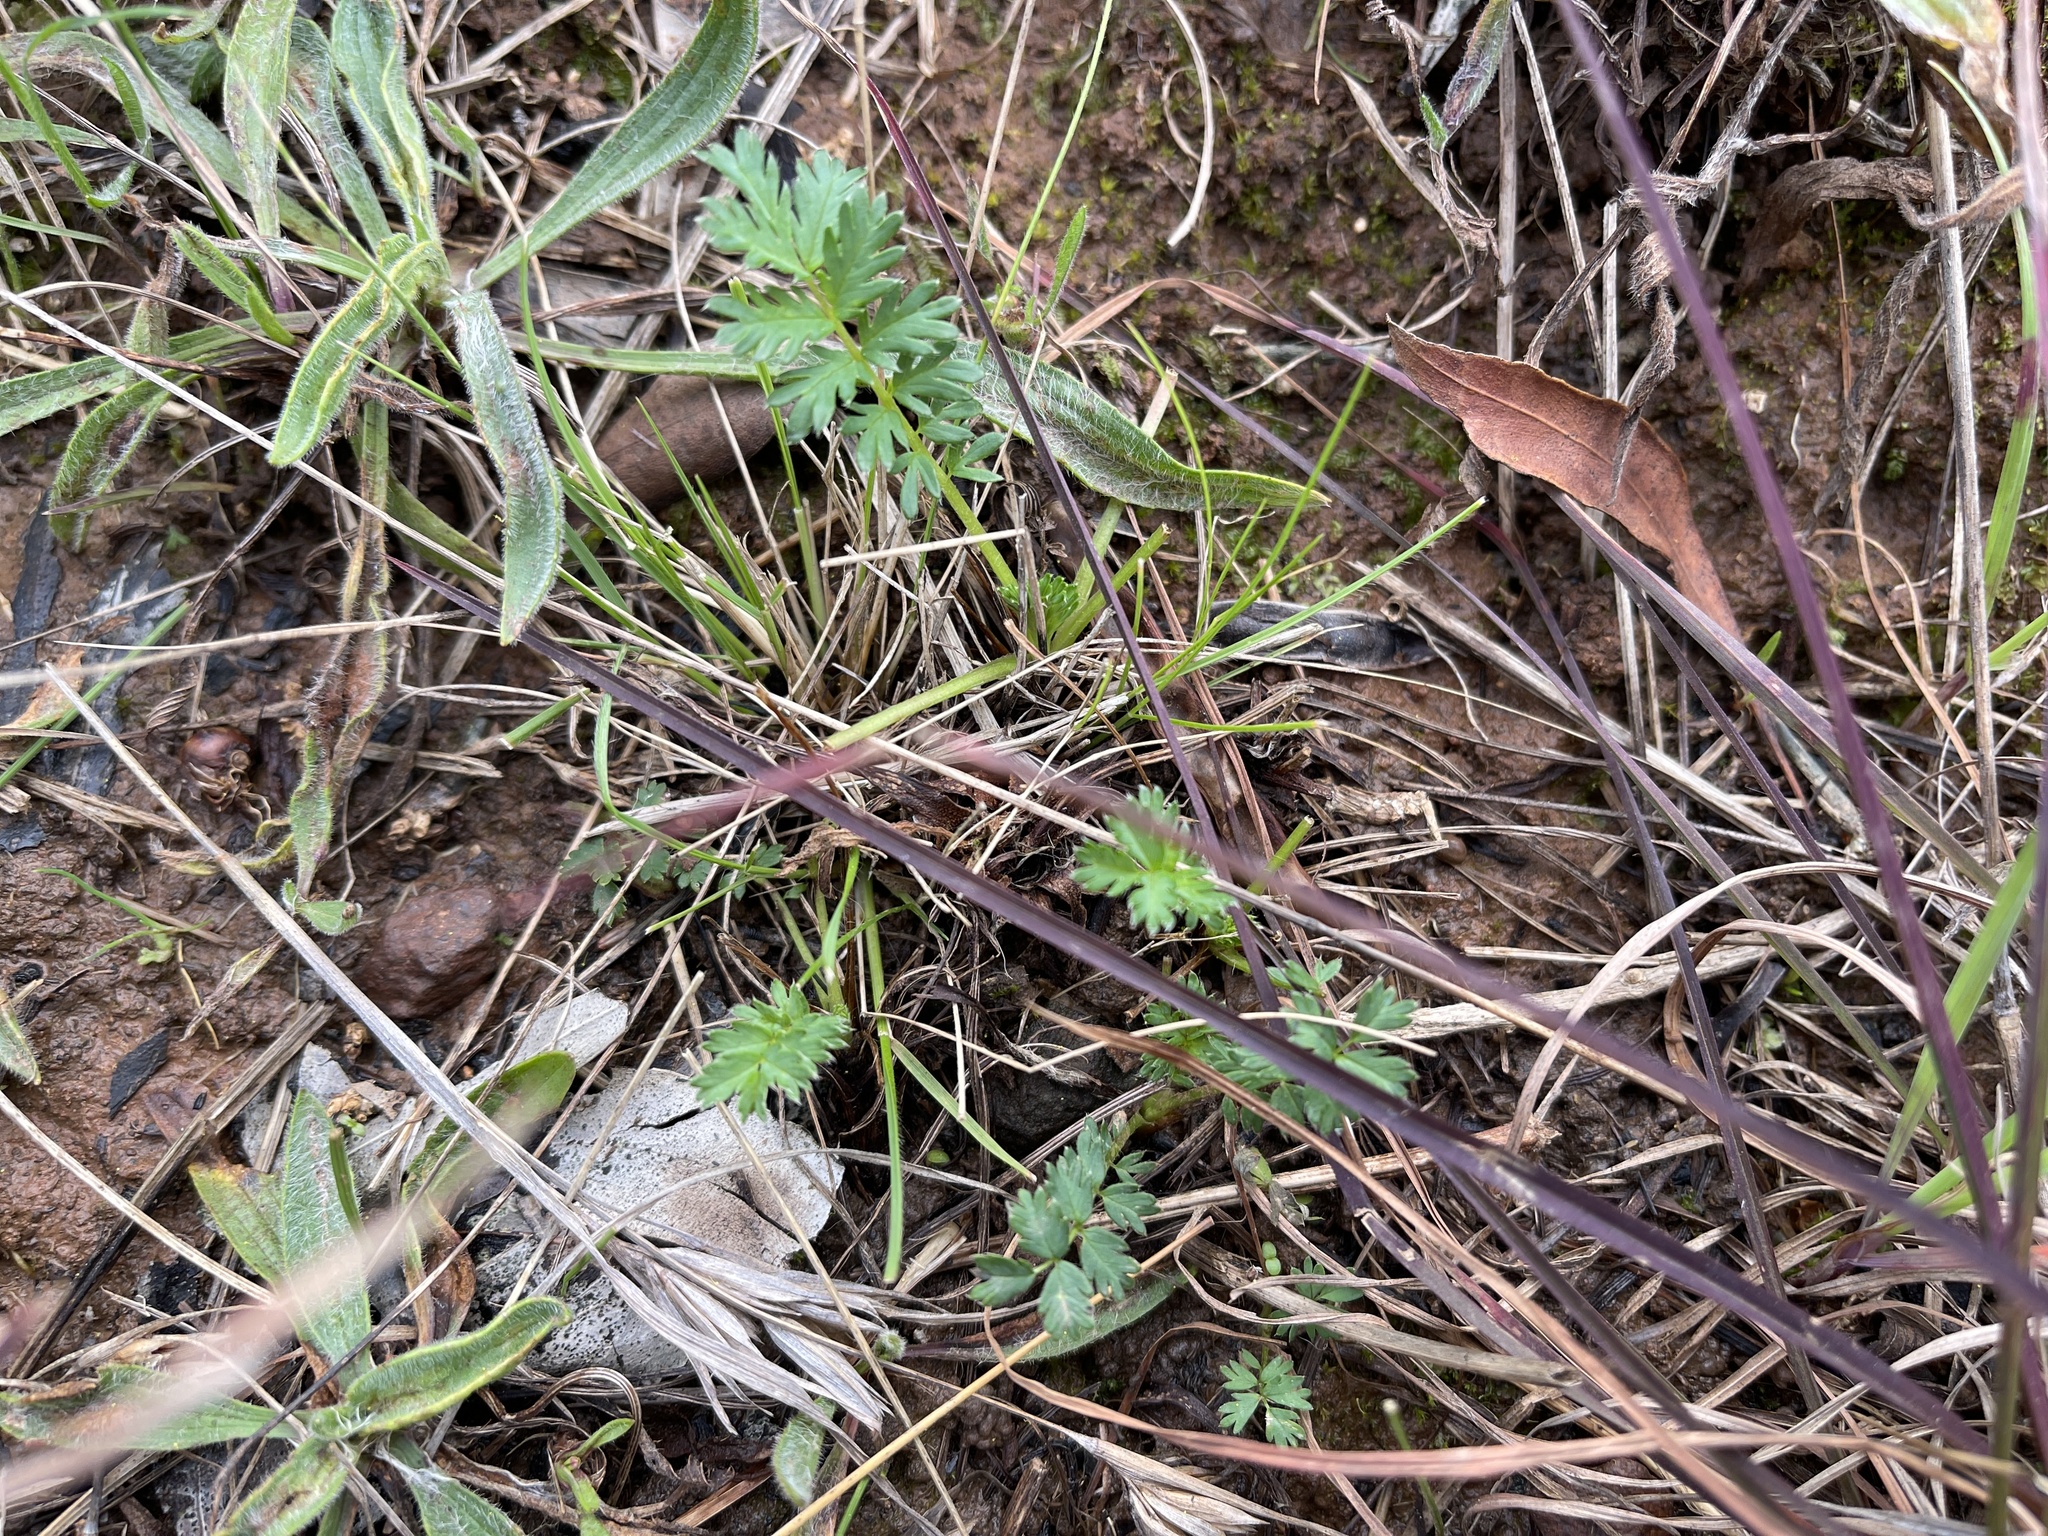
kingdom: Plantae
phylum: Tracheophyta
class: Magnoliopsida
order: Rosales
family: Rosaceae
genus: Acaena
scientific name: Acaena echinata
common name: Sheepbur
